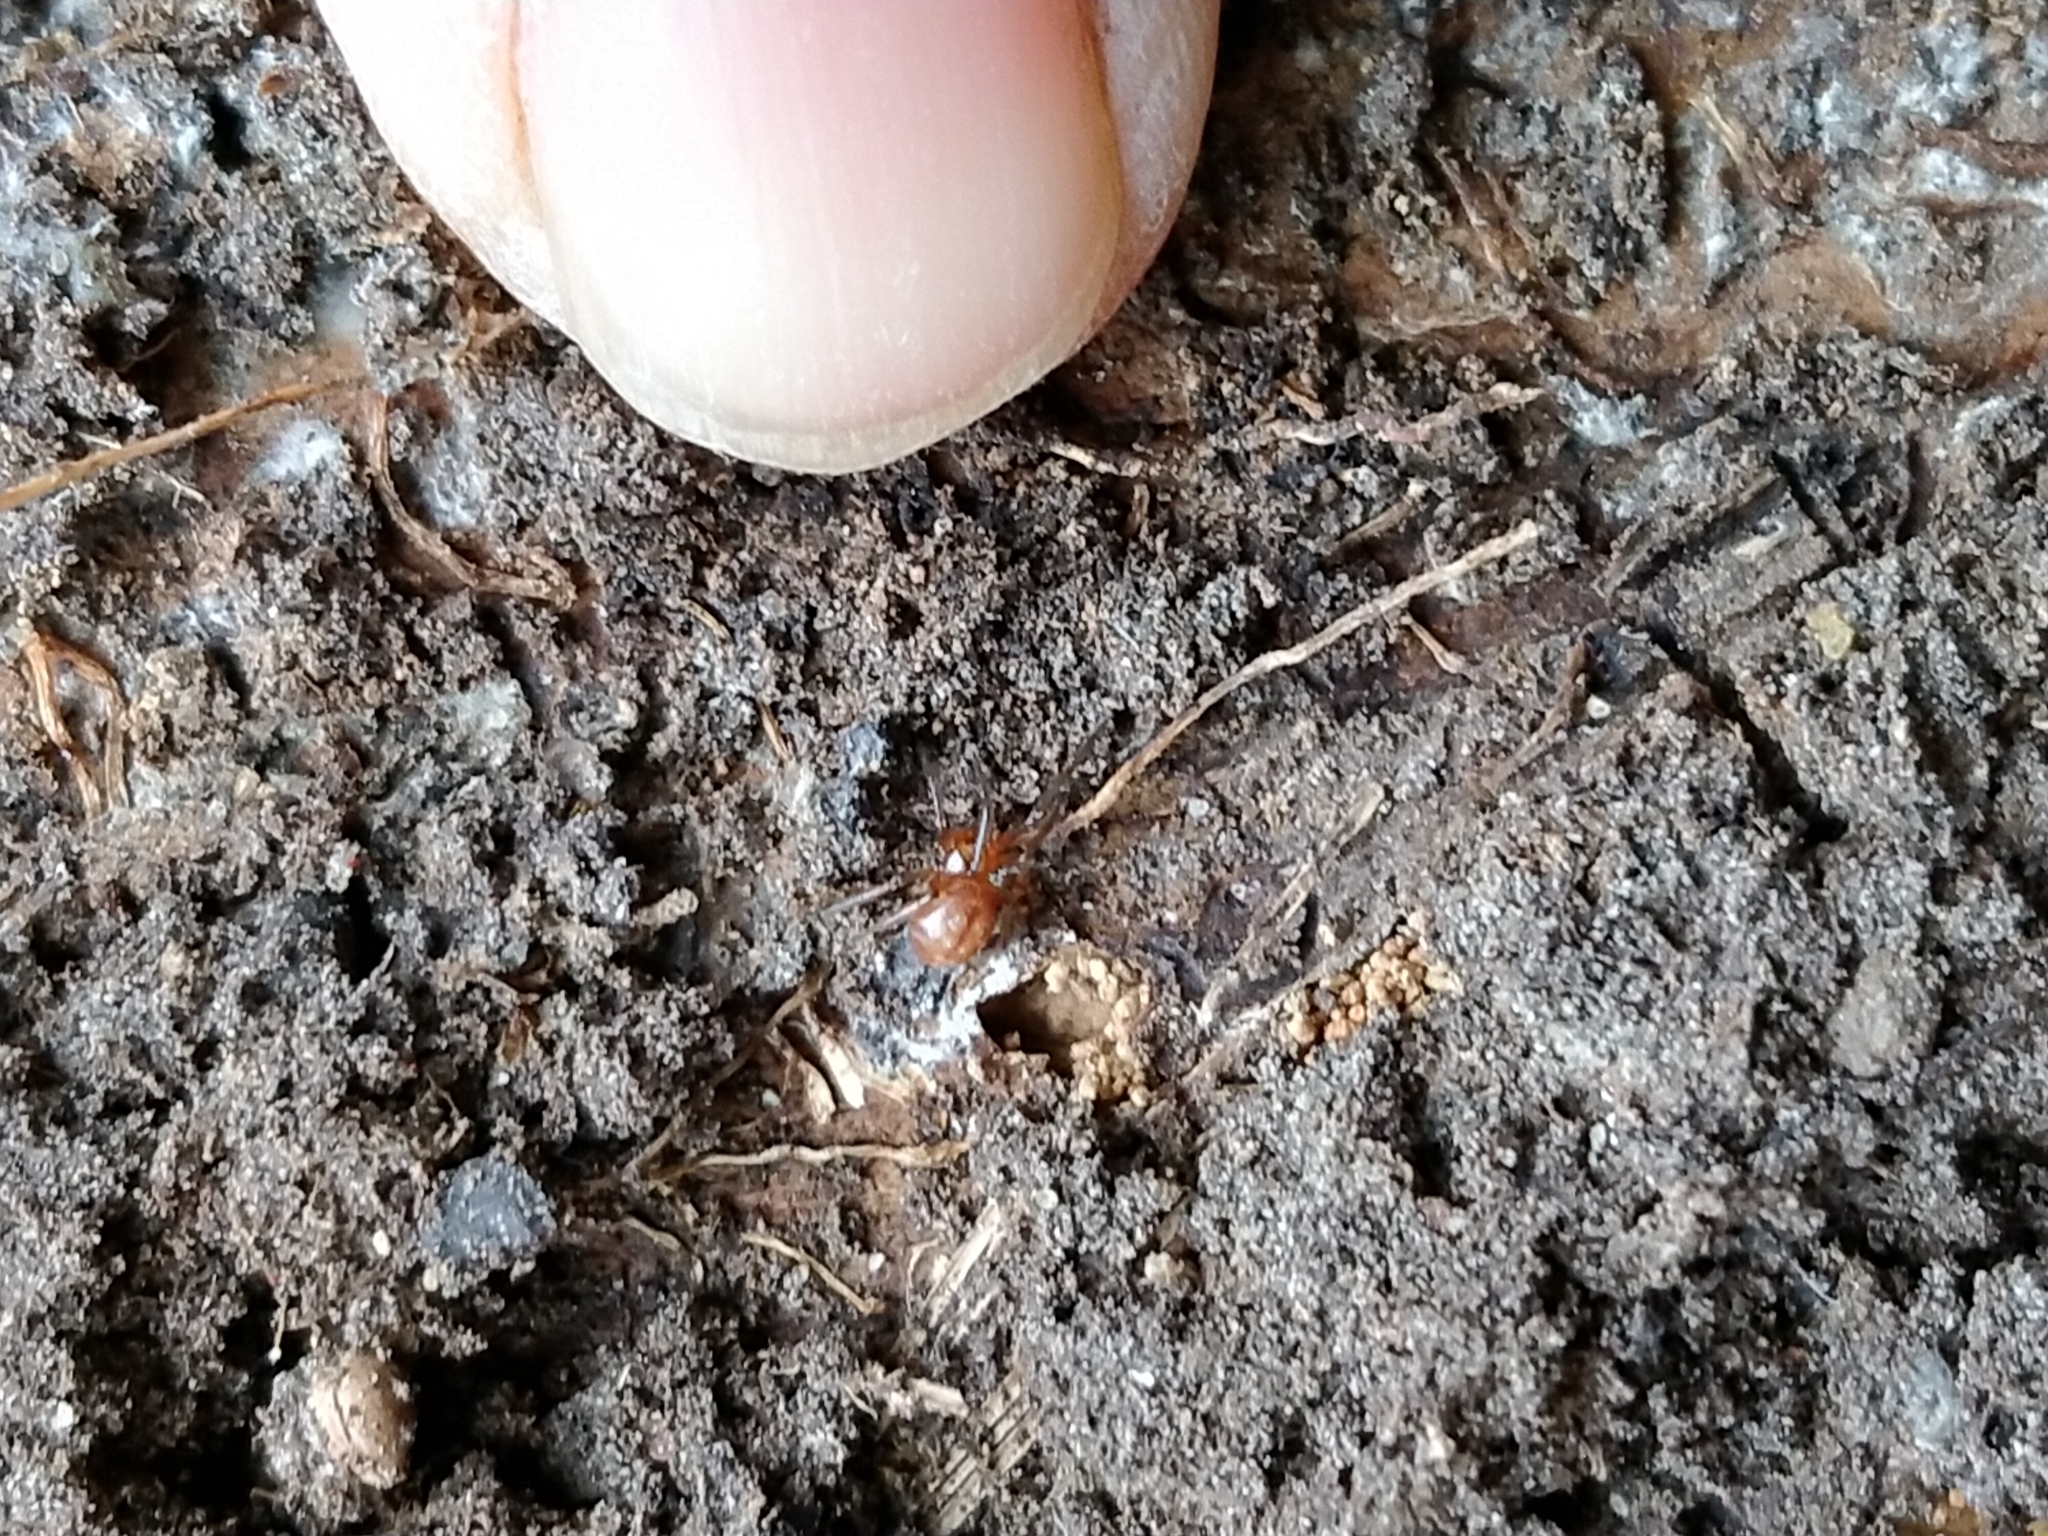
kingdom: Animalia
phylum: Arthropoda
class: Arachnida
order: Araneae
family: Theridiidae
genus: Steatoda
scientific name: Steatoda capensis
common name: Cobweb weaver
